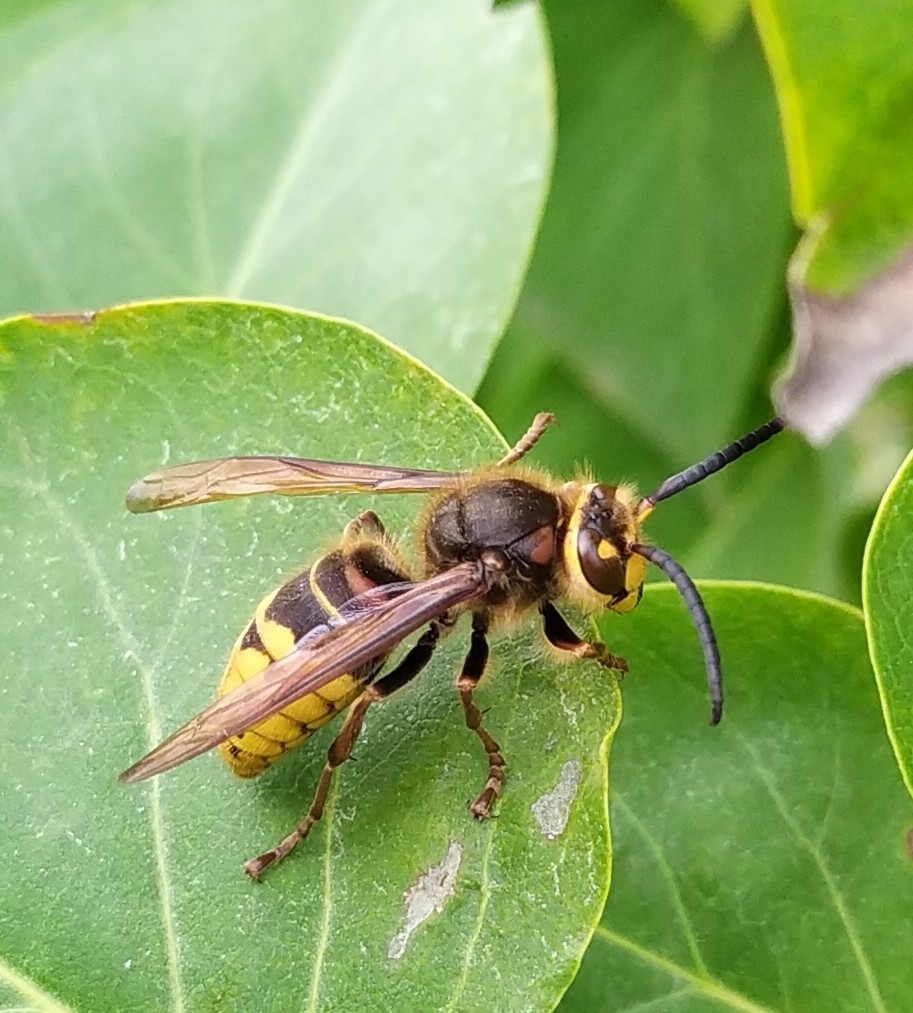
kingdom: Animalia
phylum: Arthropoda
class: Insecta
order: Hymenoptera
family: Vespidae
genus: Vespa
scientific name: Vespa crabro
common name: Hornet
